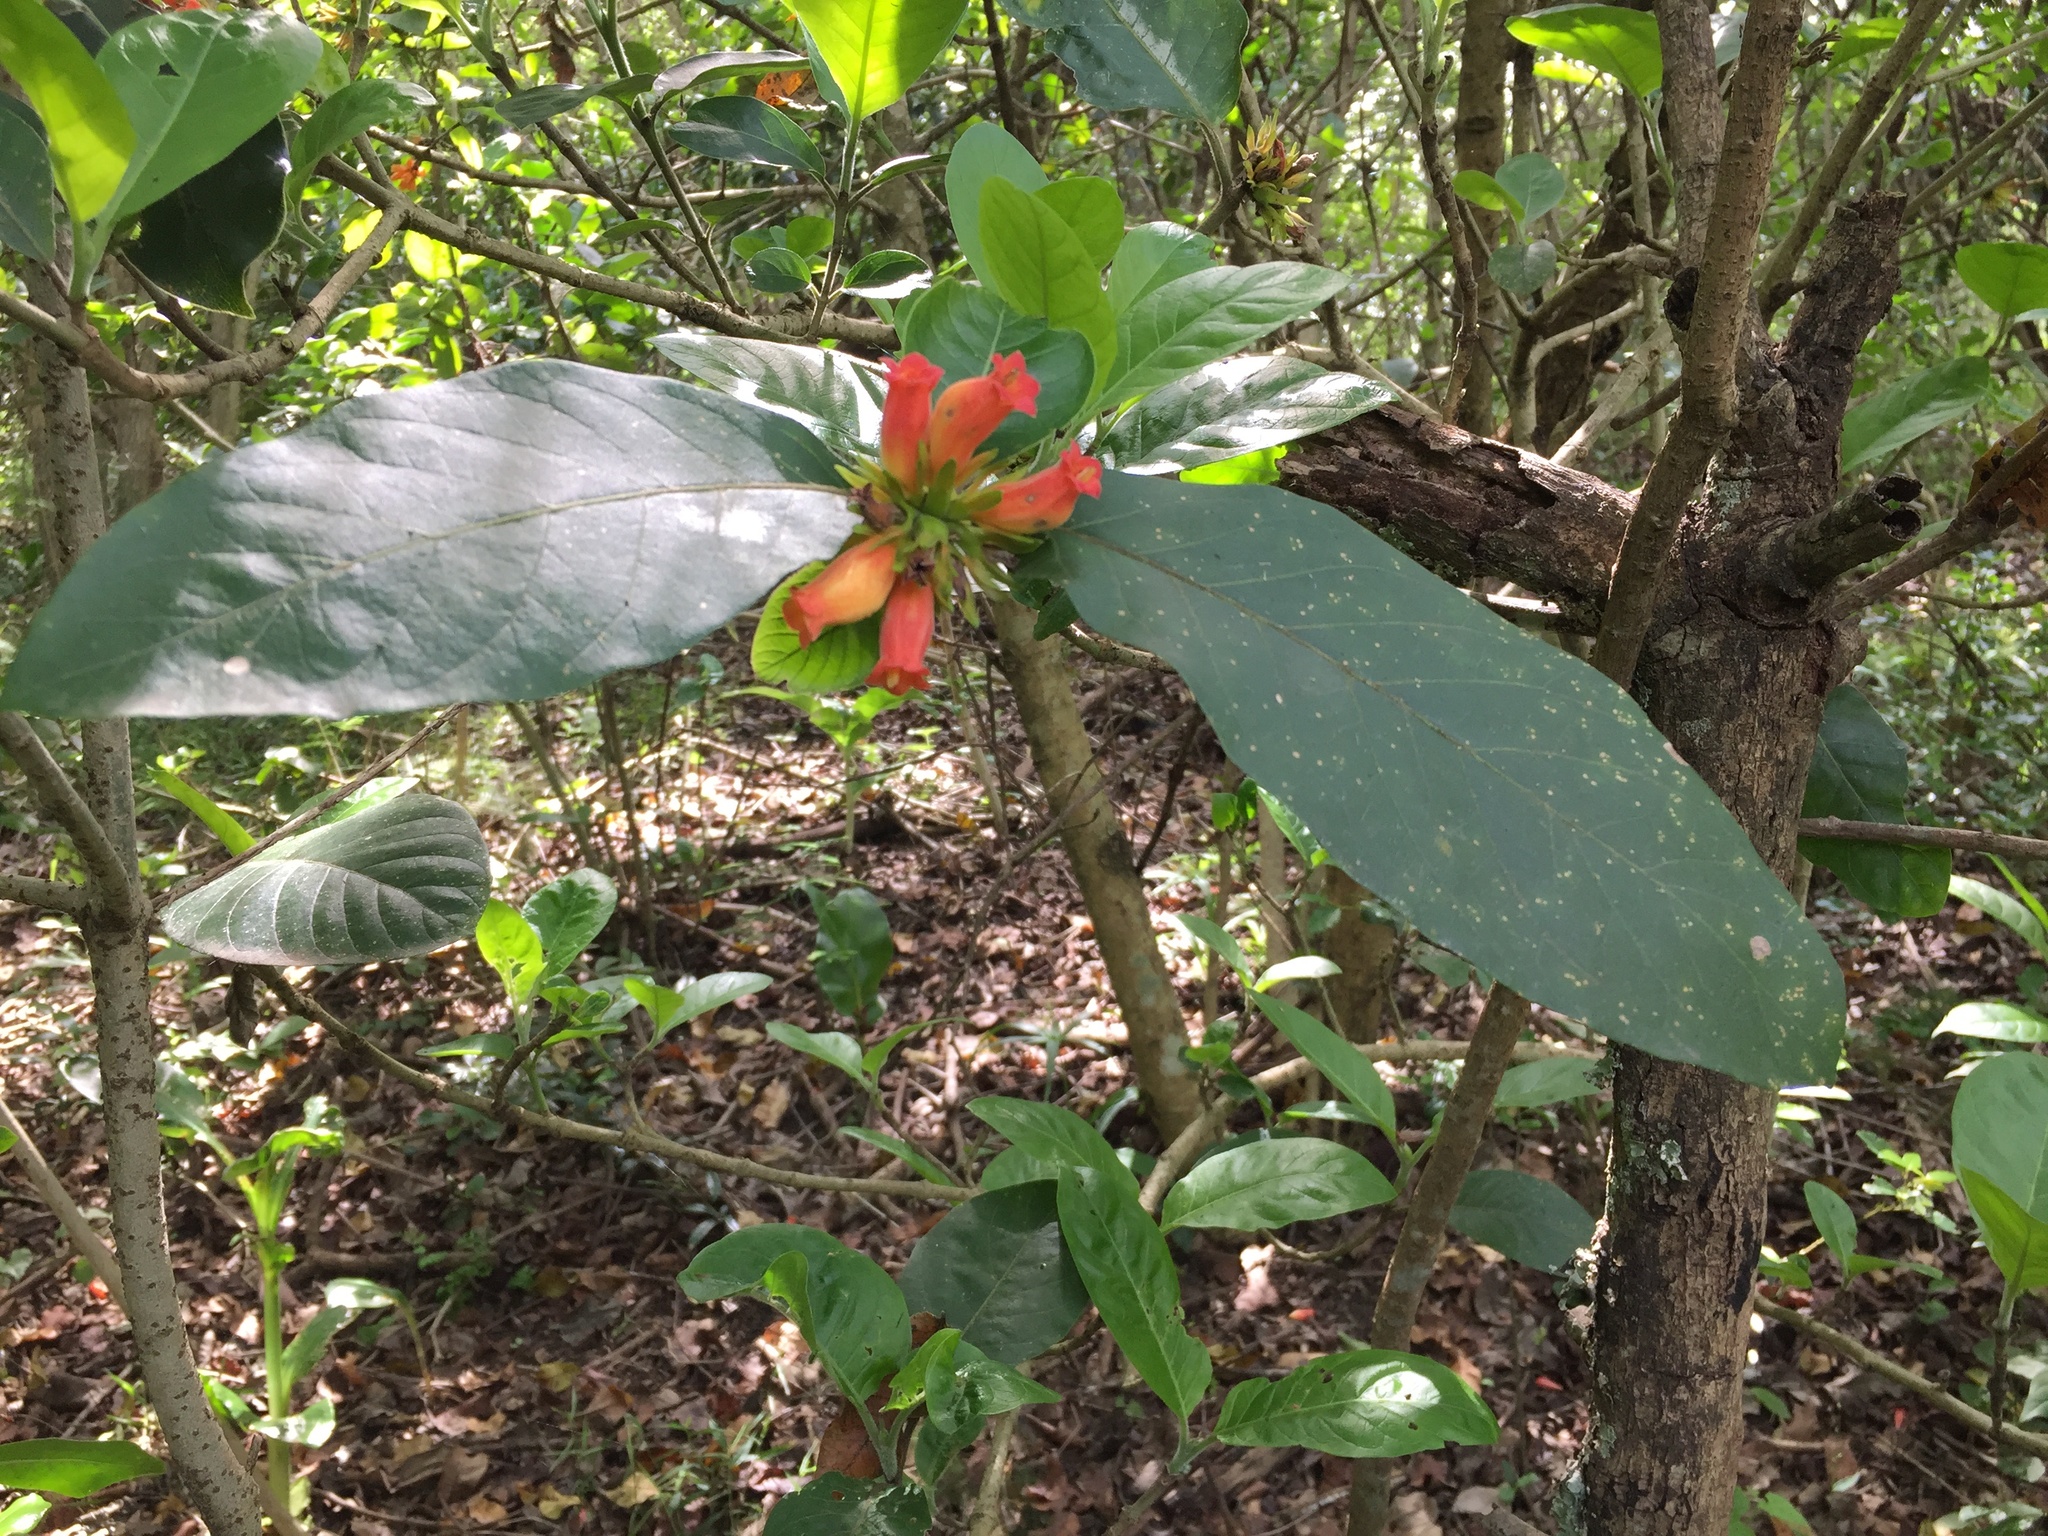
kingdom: Plantae
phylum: Tracheophyta
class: Magnoliopsida
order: Gentianales
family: Rubiaceae
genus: Burchellia
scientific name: Burchellia bubalina
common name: Wild pomegranate
